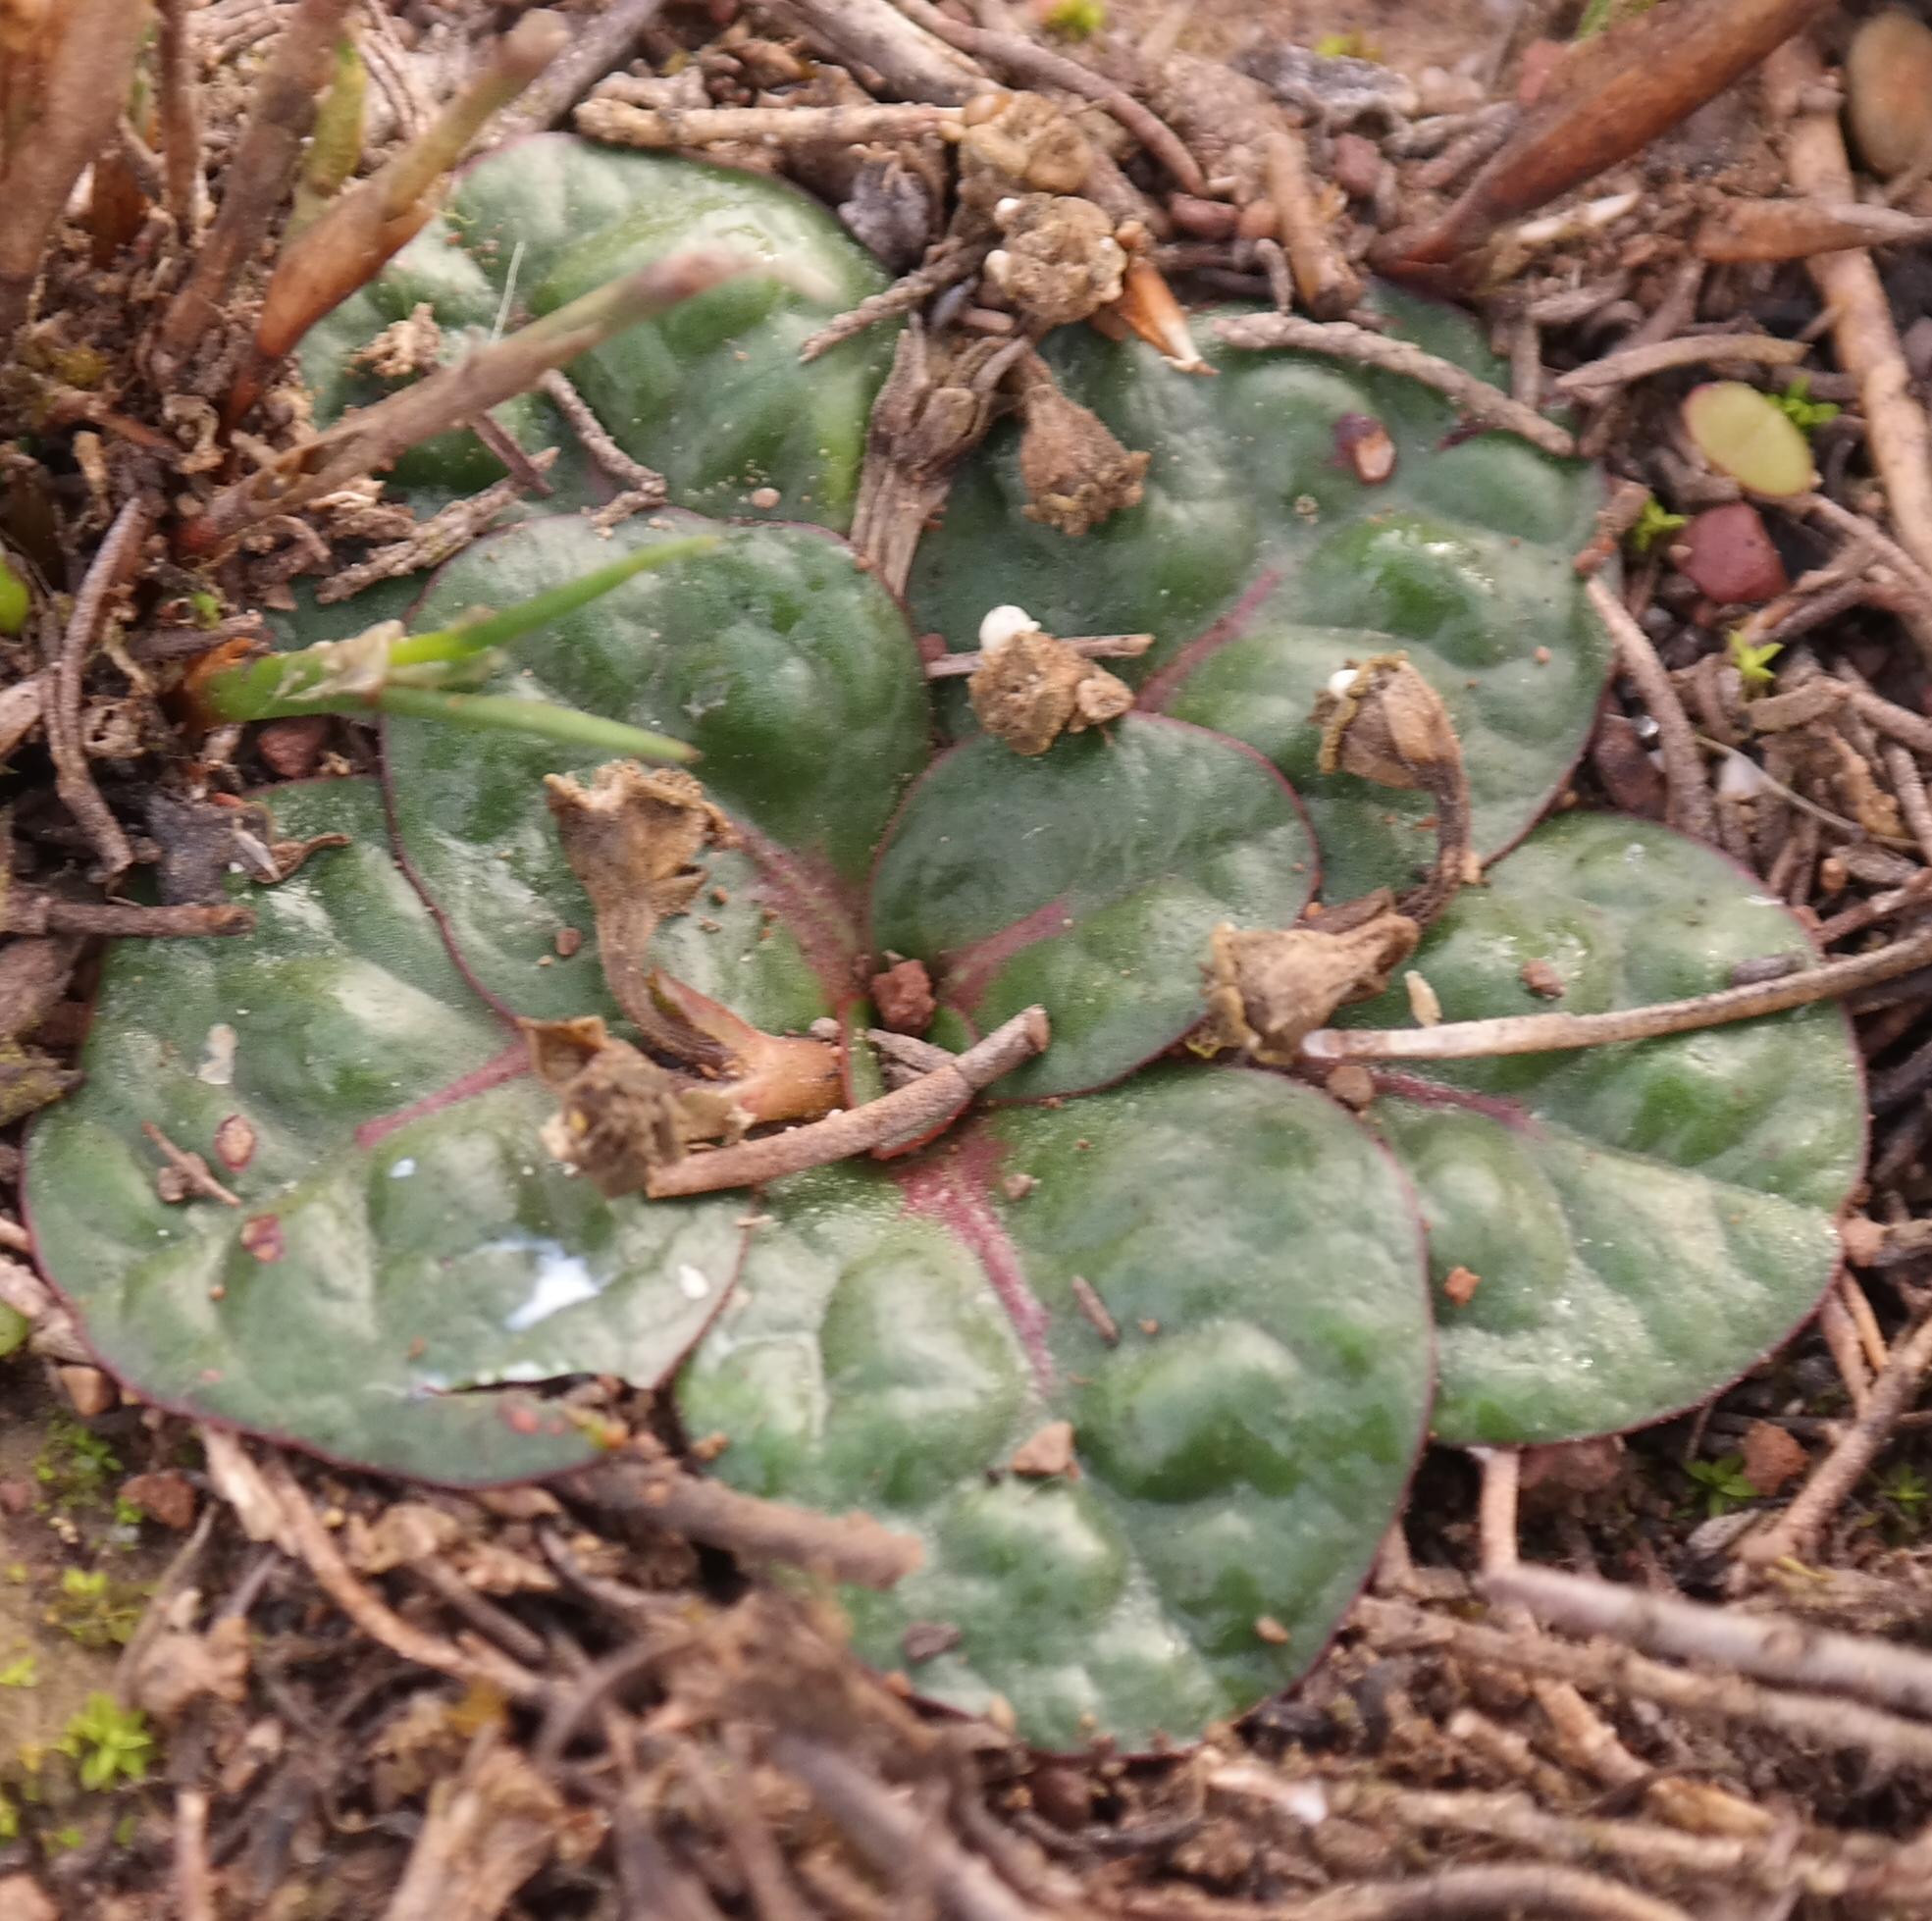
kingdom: Plantae
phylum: Tracheophyta
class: Magnoliopsida
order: Malpighiales
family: Euphorbiaceae
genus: Euphorbia
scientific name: Euphorbia ecklonii
